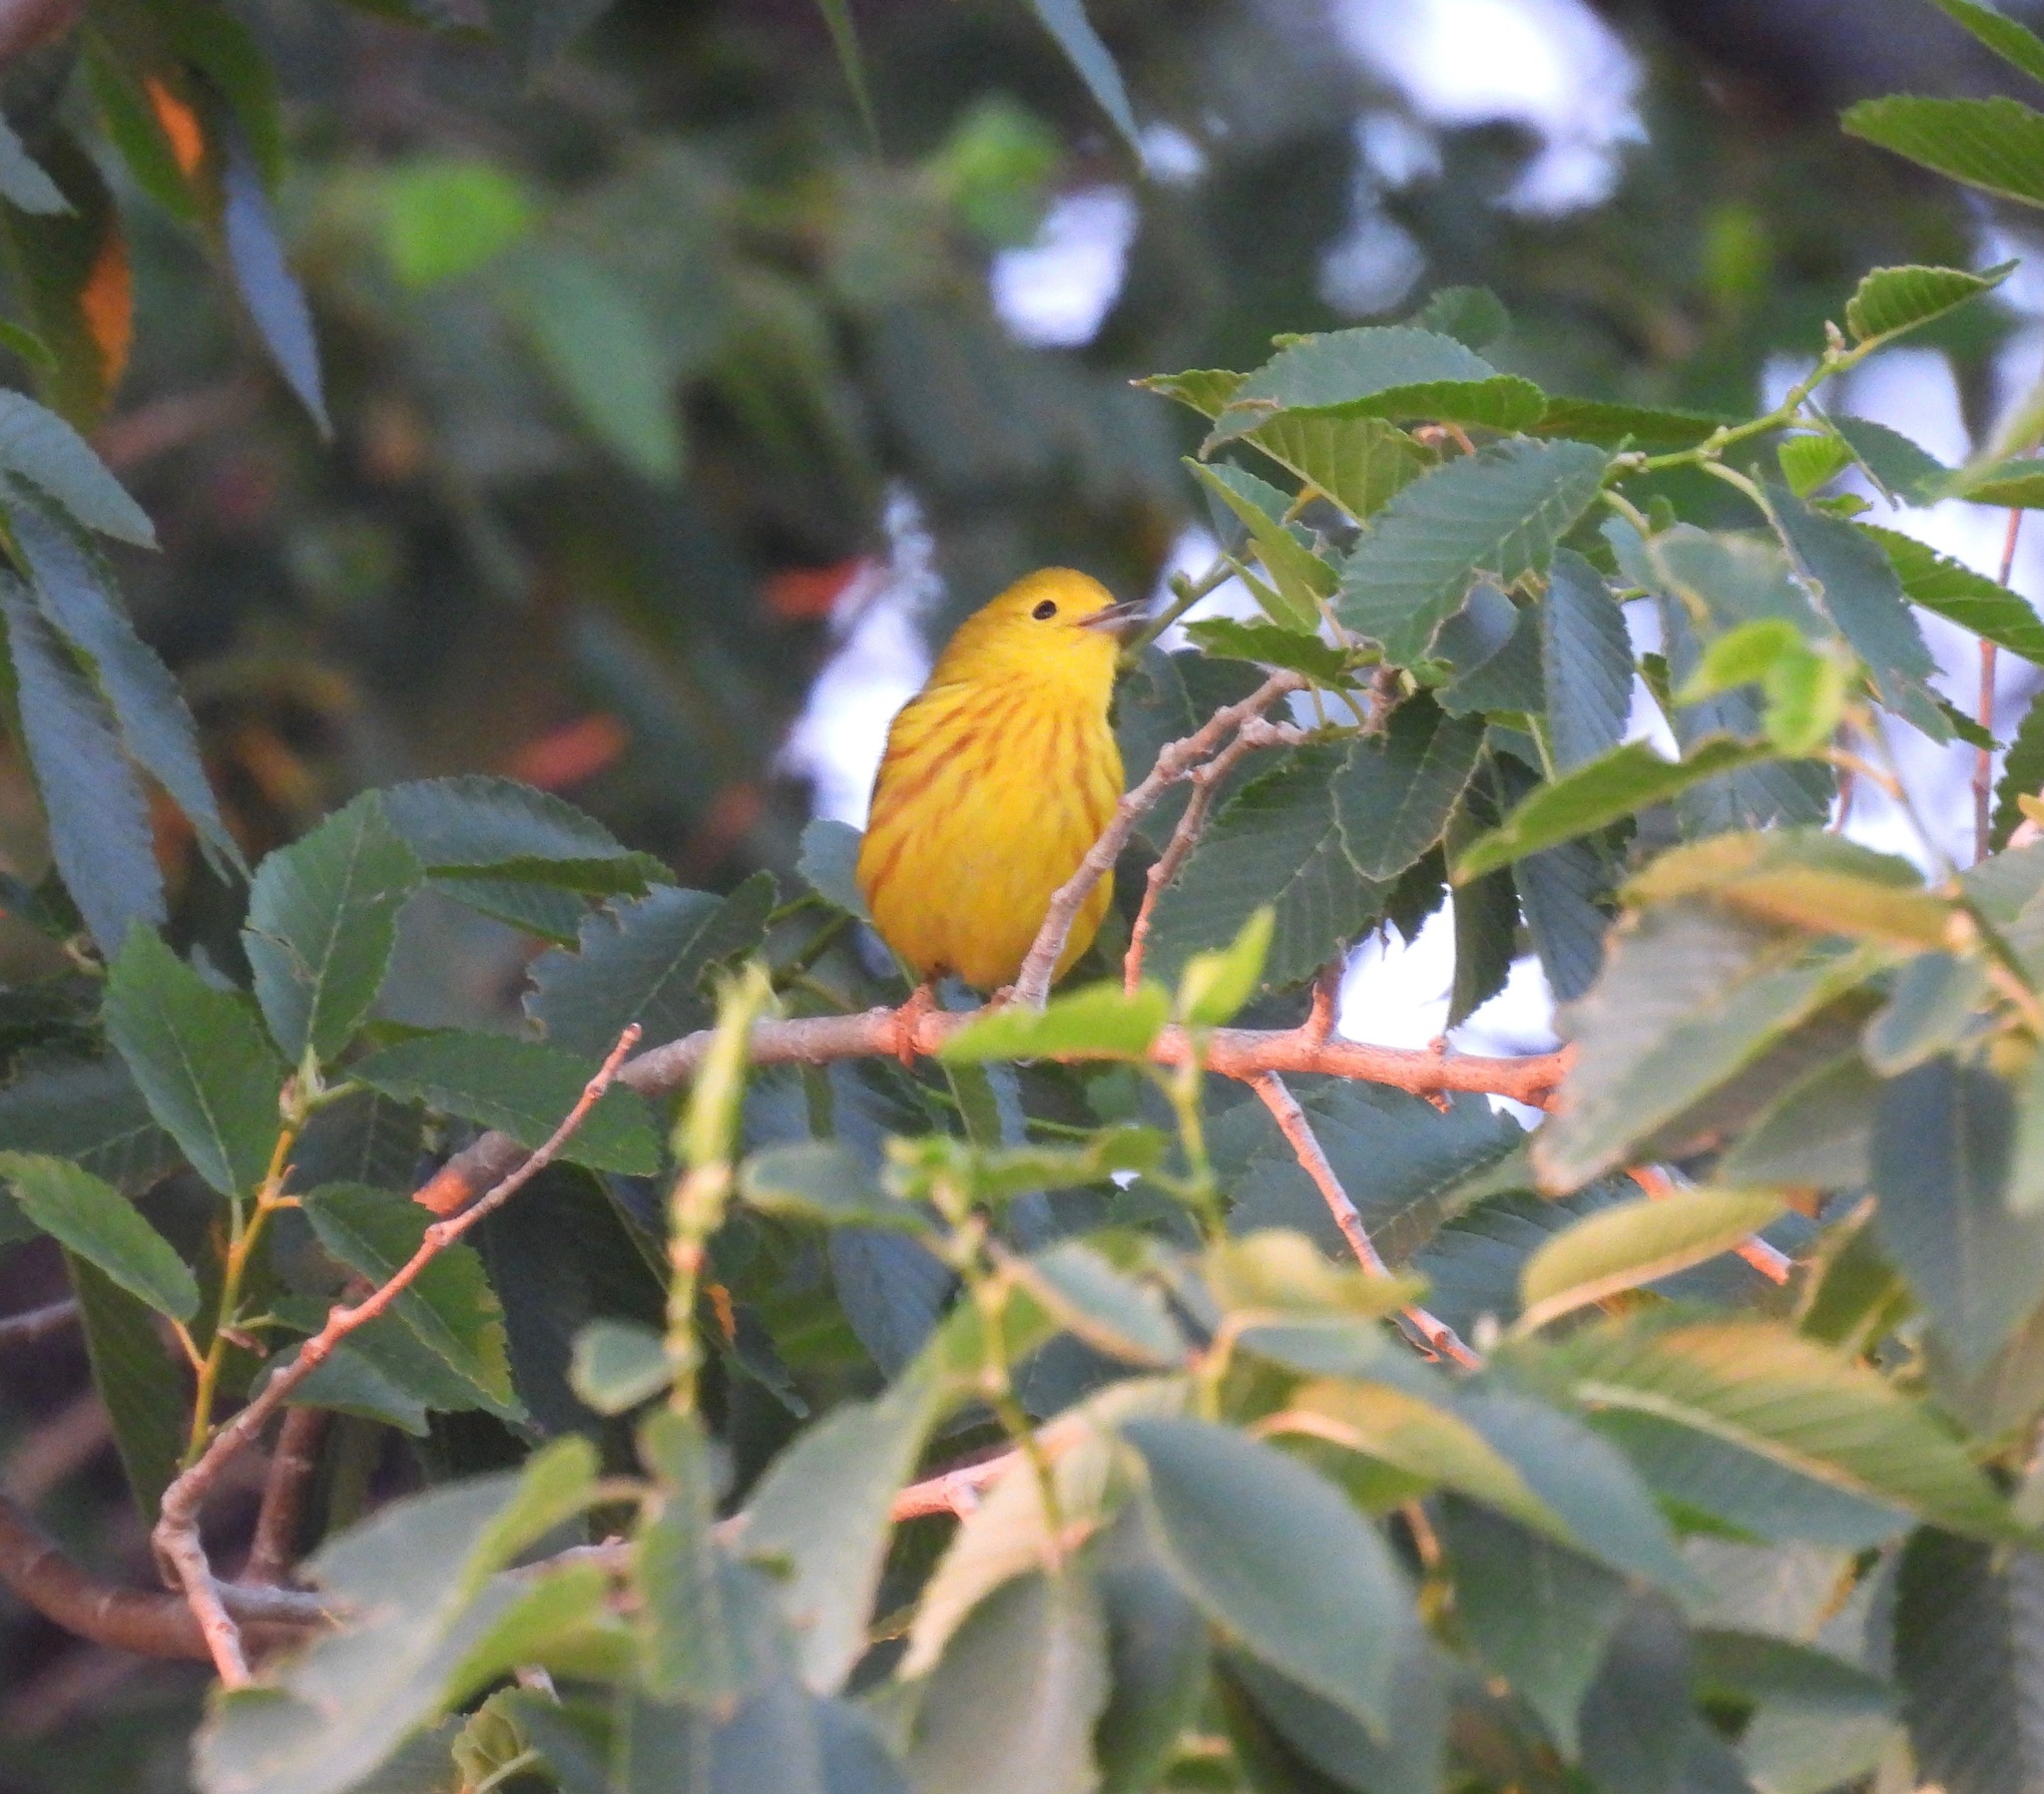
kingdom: Animalia
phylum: Chordata
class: Aves
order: Passeriformes
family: Parulidae
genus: Setophaga
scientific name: Setophaga petechia
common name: Yellow warbler
